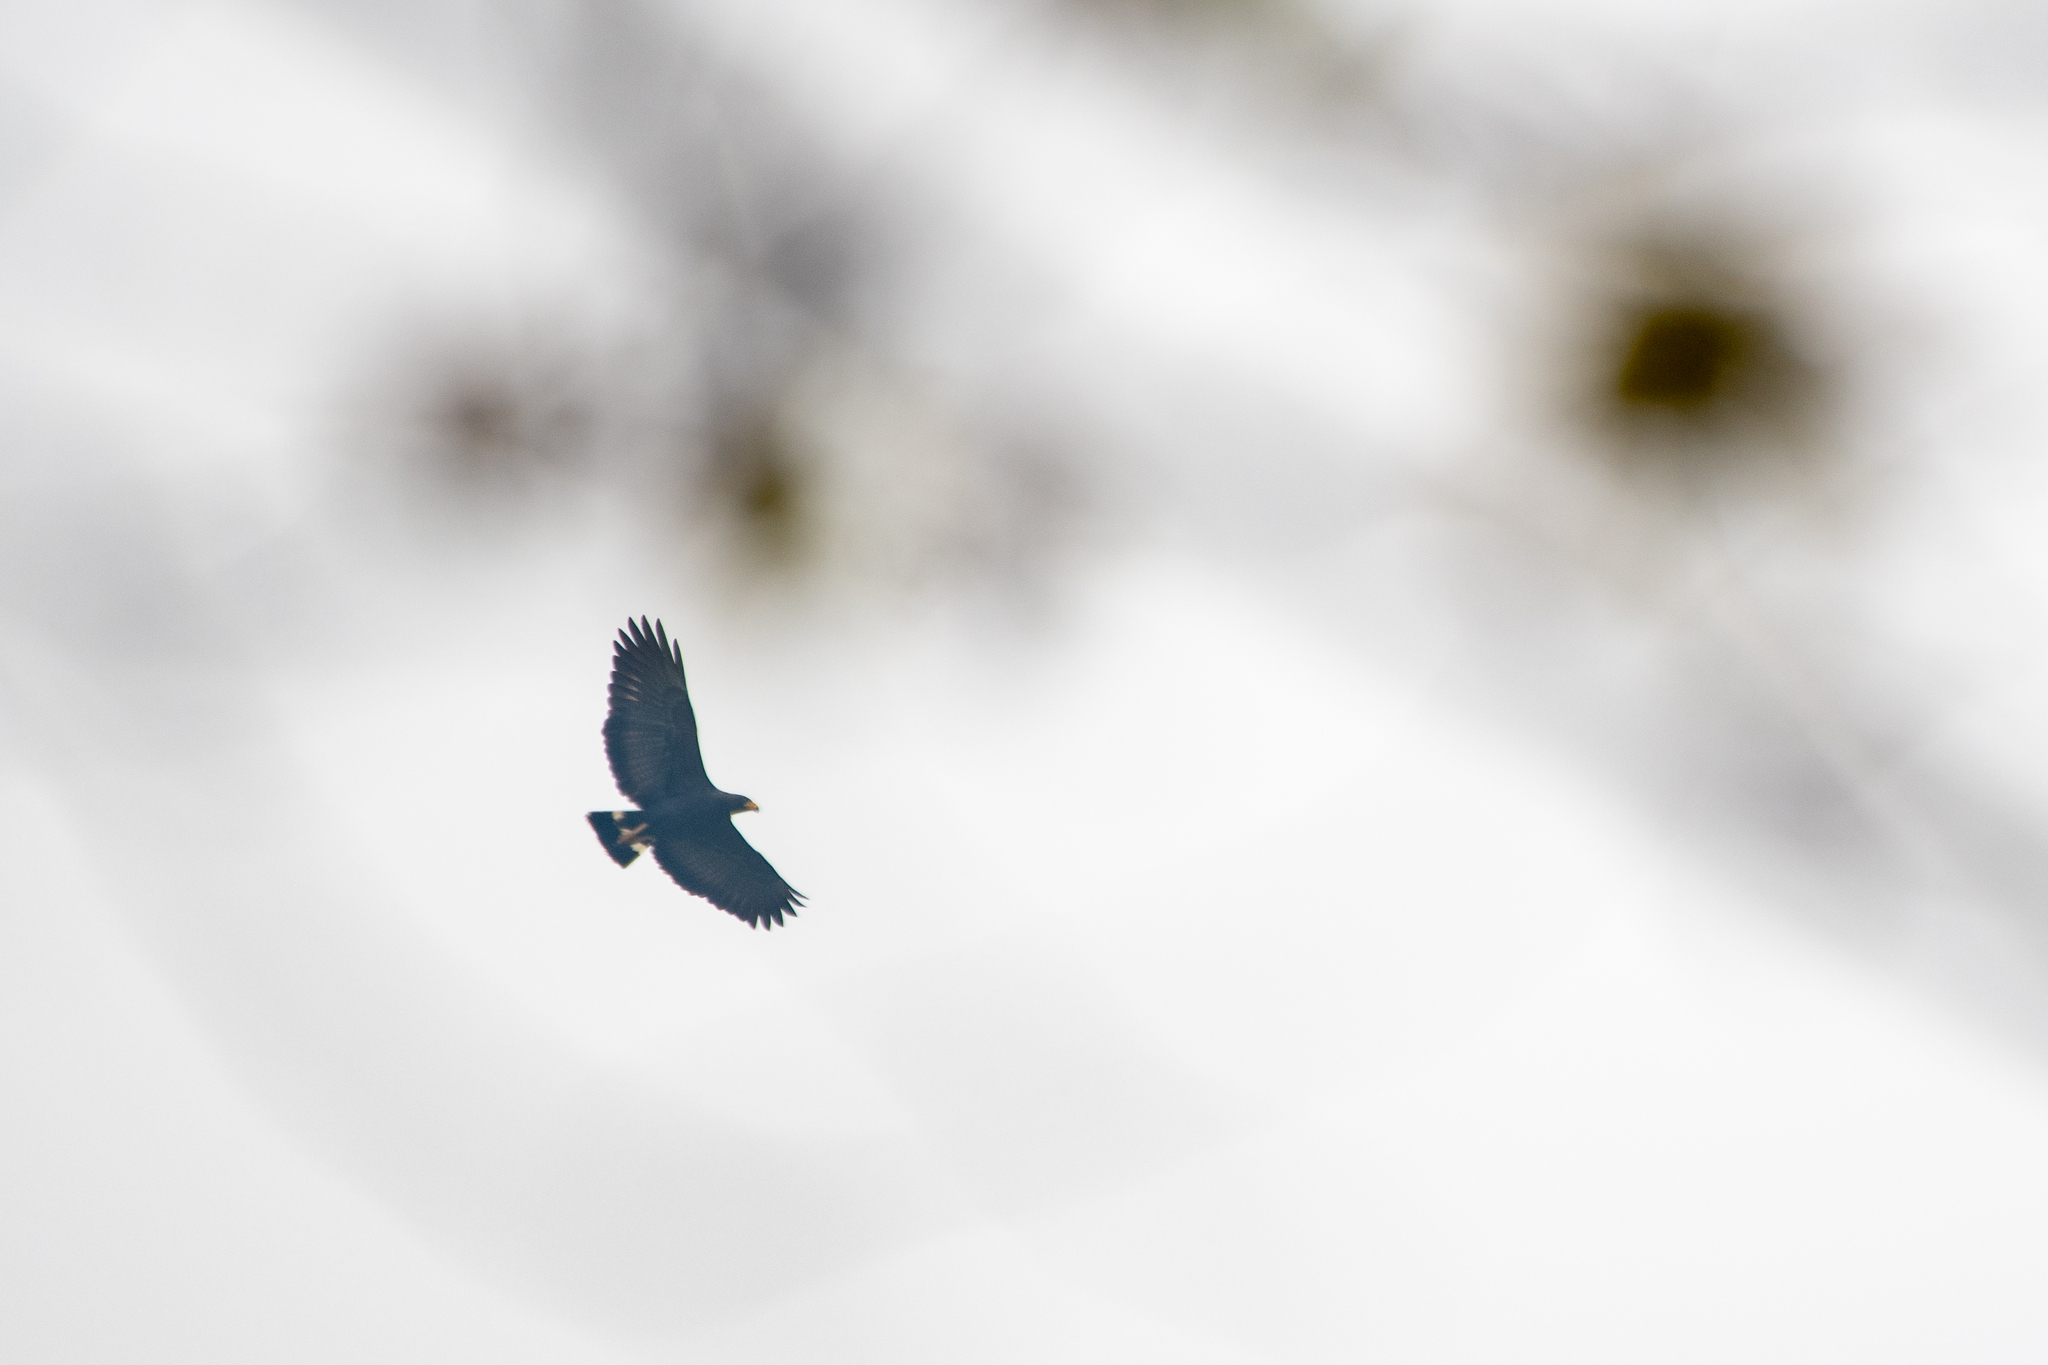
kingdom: Animalia
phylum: Chordata
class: Aves
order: Accipitriformes
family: Accipitridae
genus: Buteogallus
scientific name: Buteogallus anthracinus
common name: Common black hawk
